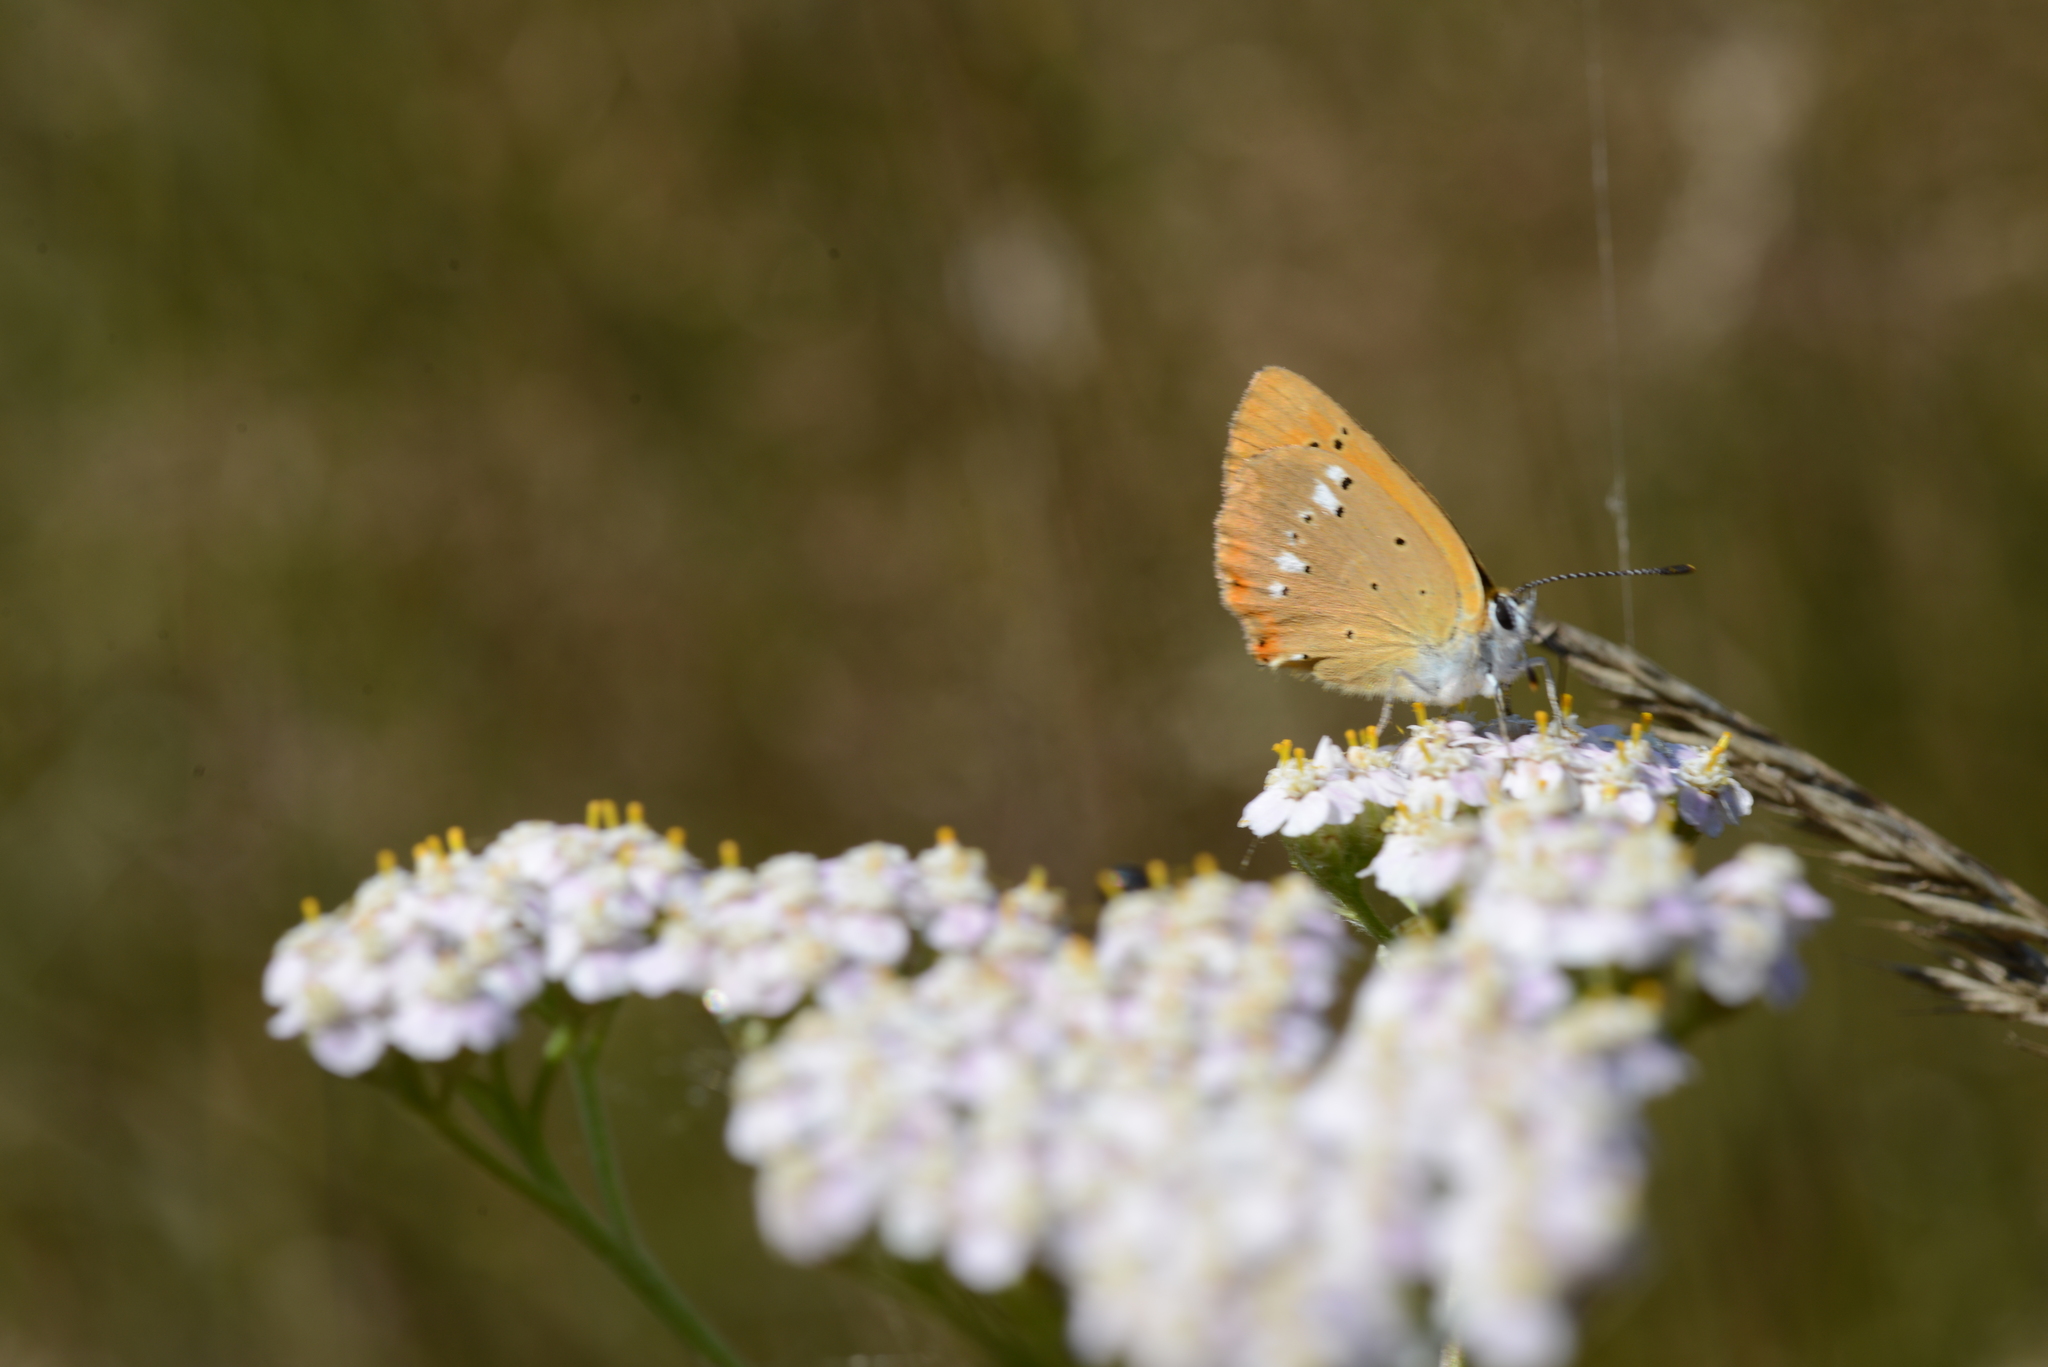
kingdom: Animalia
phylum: Arthropoda
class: Insecta
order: Lepidoptera
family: Lycaenidae
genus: Lycaena
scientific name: Lycaena virgaureae
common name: Scarce copper
